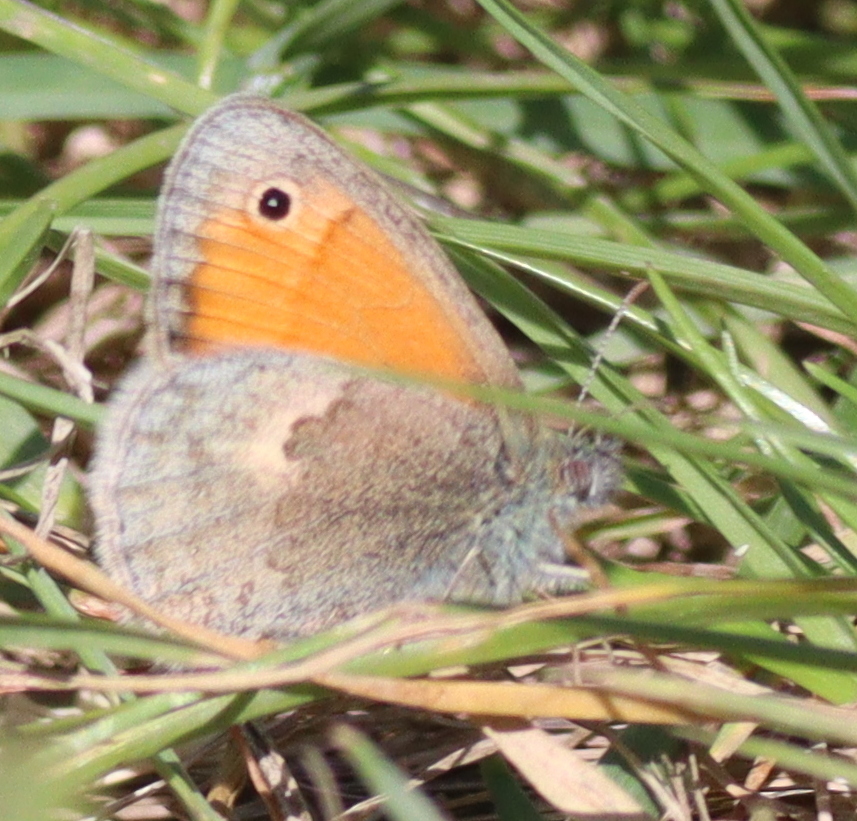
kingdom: Animalia
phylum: Arthropoda
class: Insecta
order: Lepidoptera
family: Nymphalidae
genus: Coenonympha
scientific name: Coenonympha pamphilus
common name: Small heath
